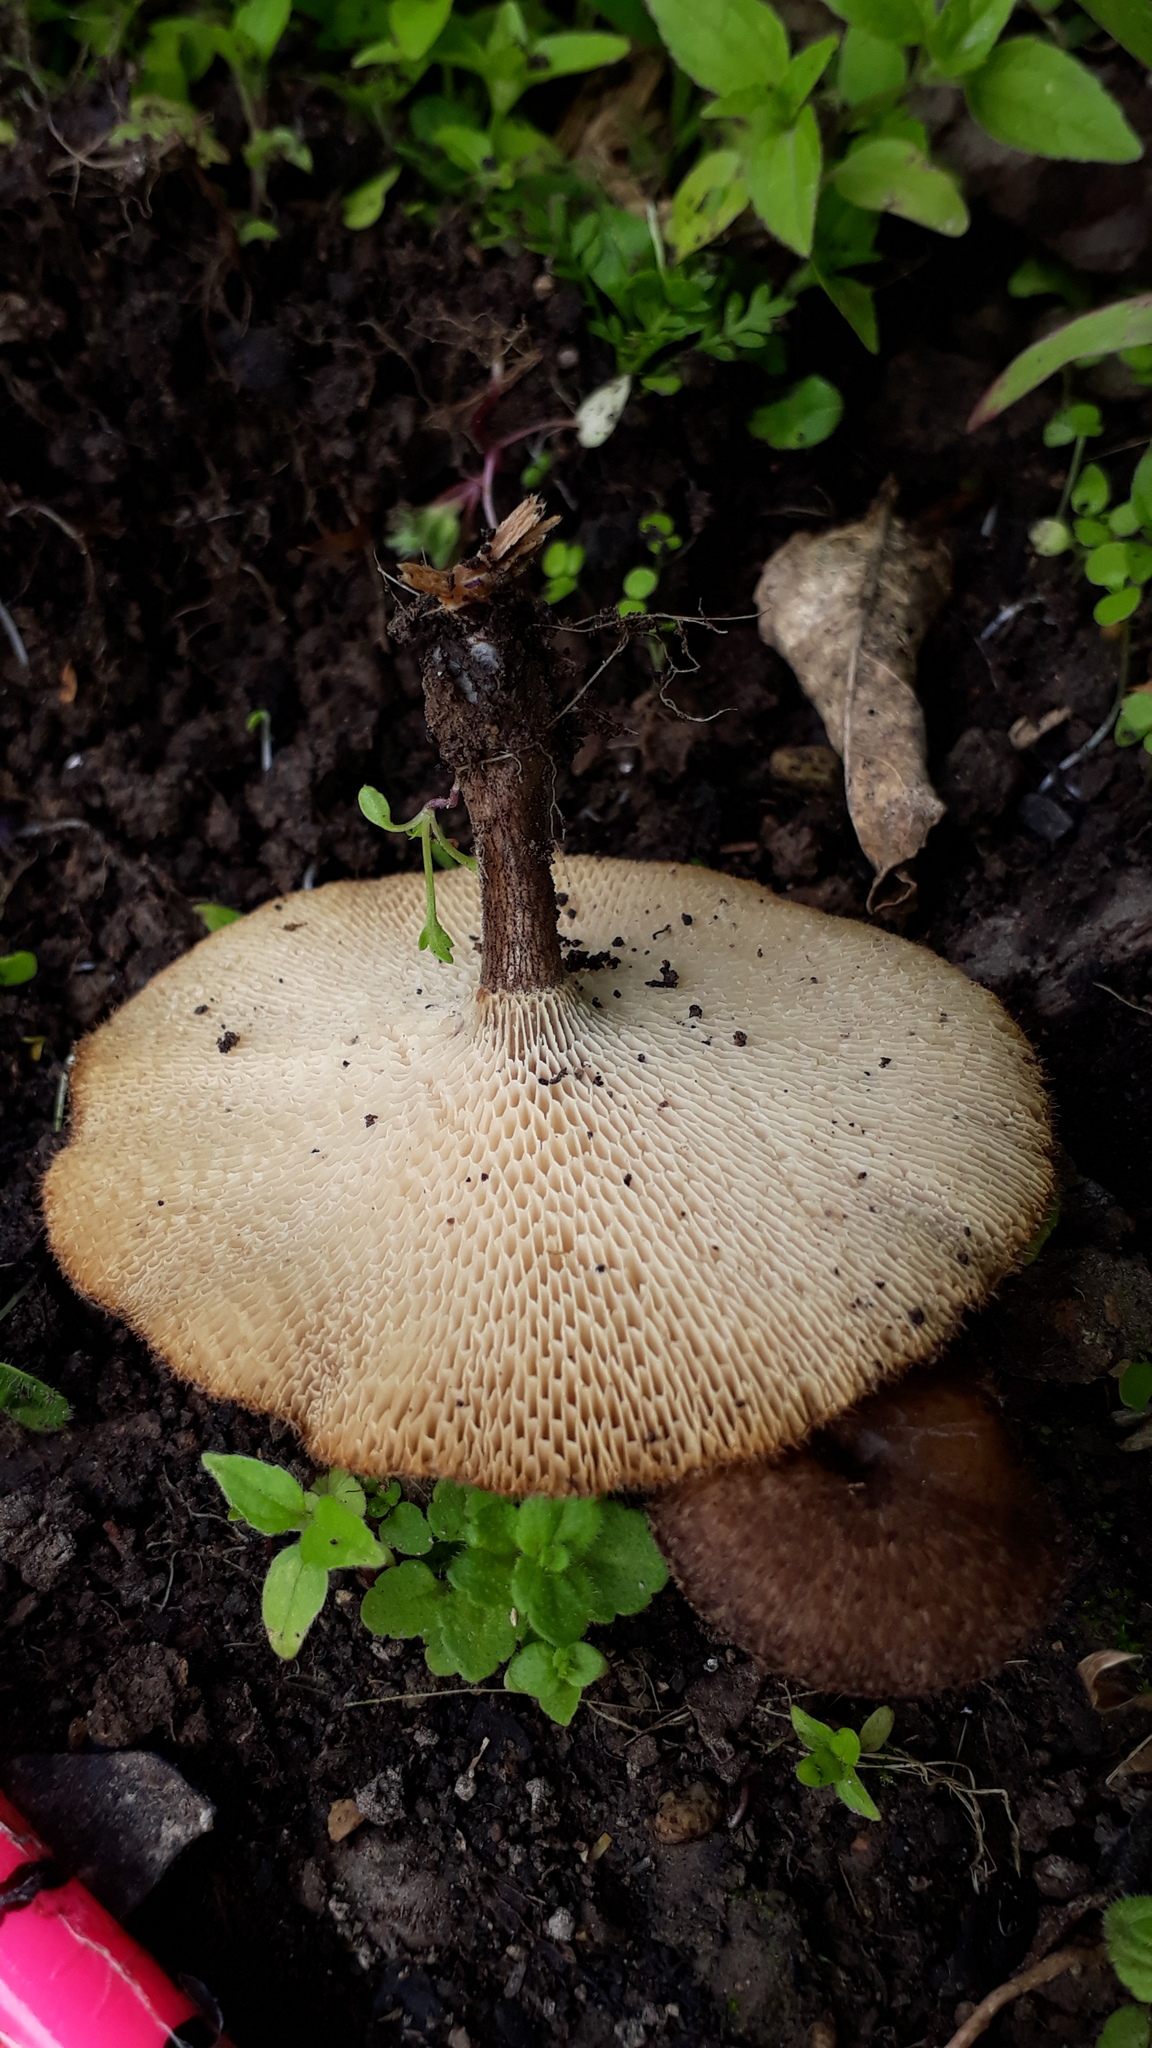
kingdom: Fungi
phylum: Basidiomycota
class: Agaricomycetes
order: Polyporales
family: Polyporaceae
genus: Lentinus
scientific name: Lentinus arcularius
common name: Spring polypore
